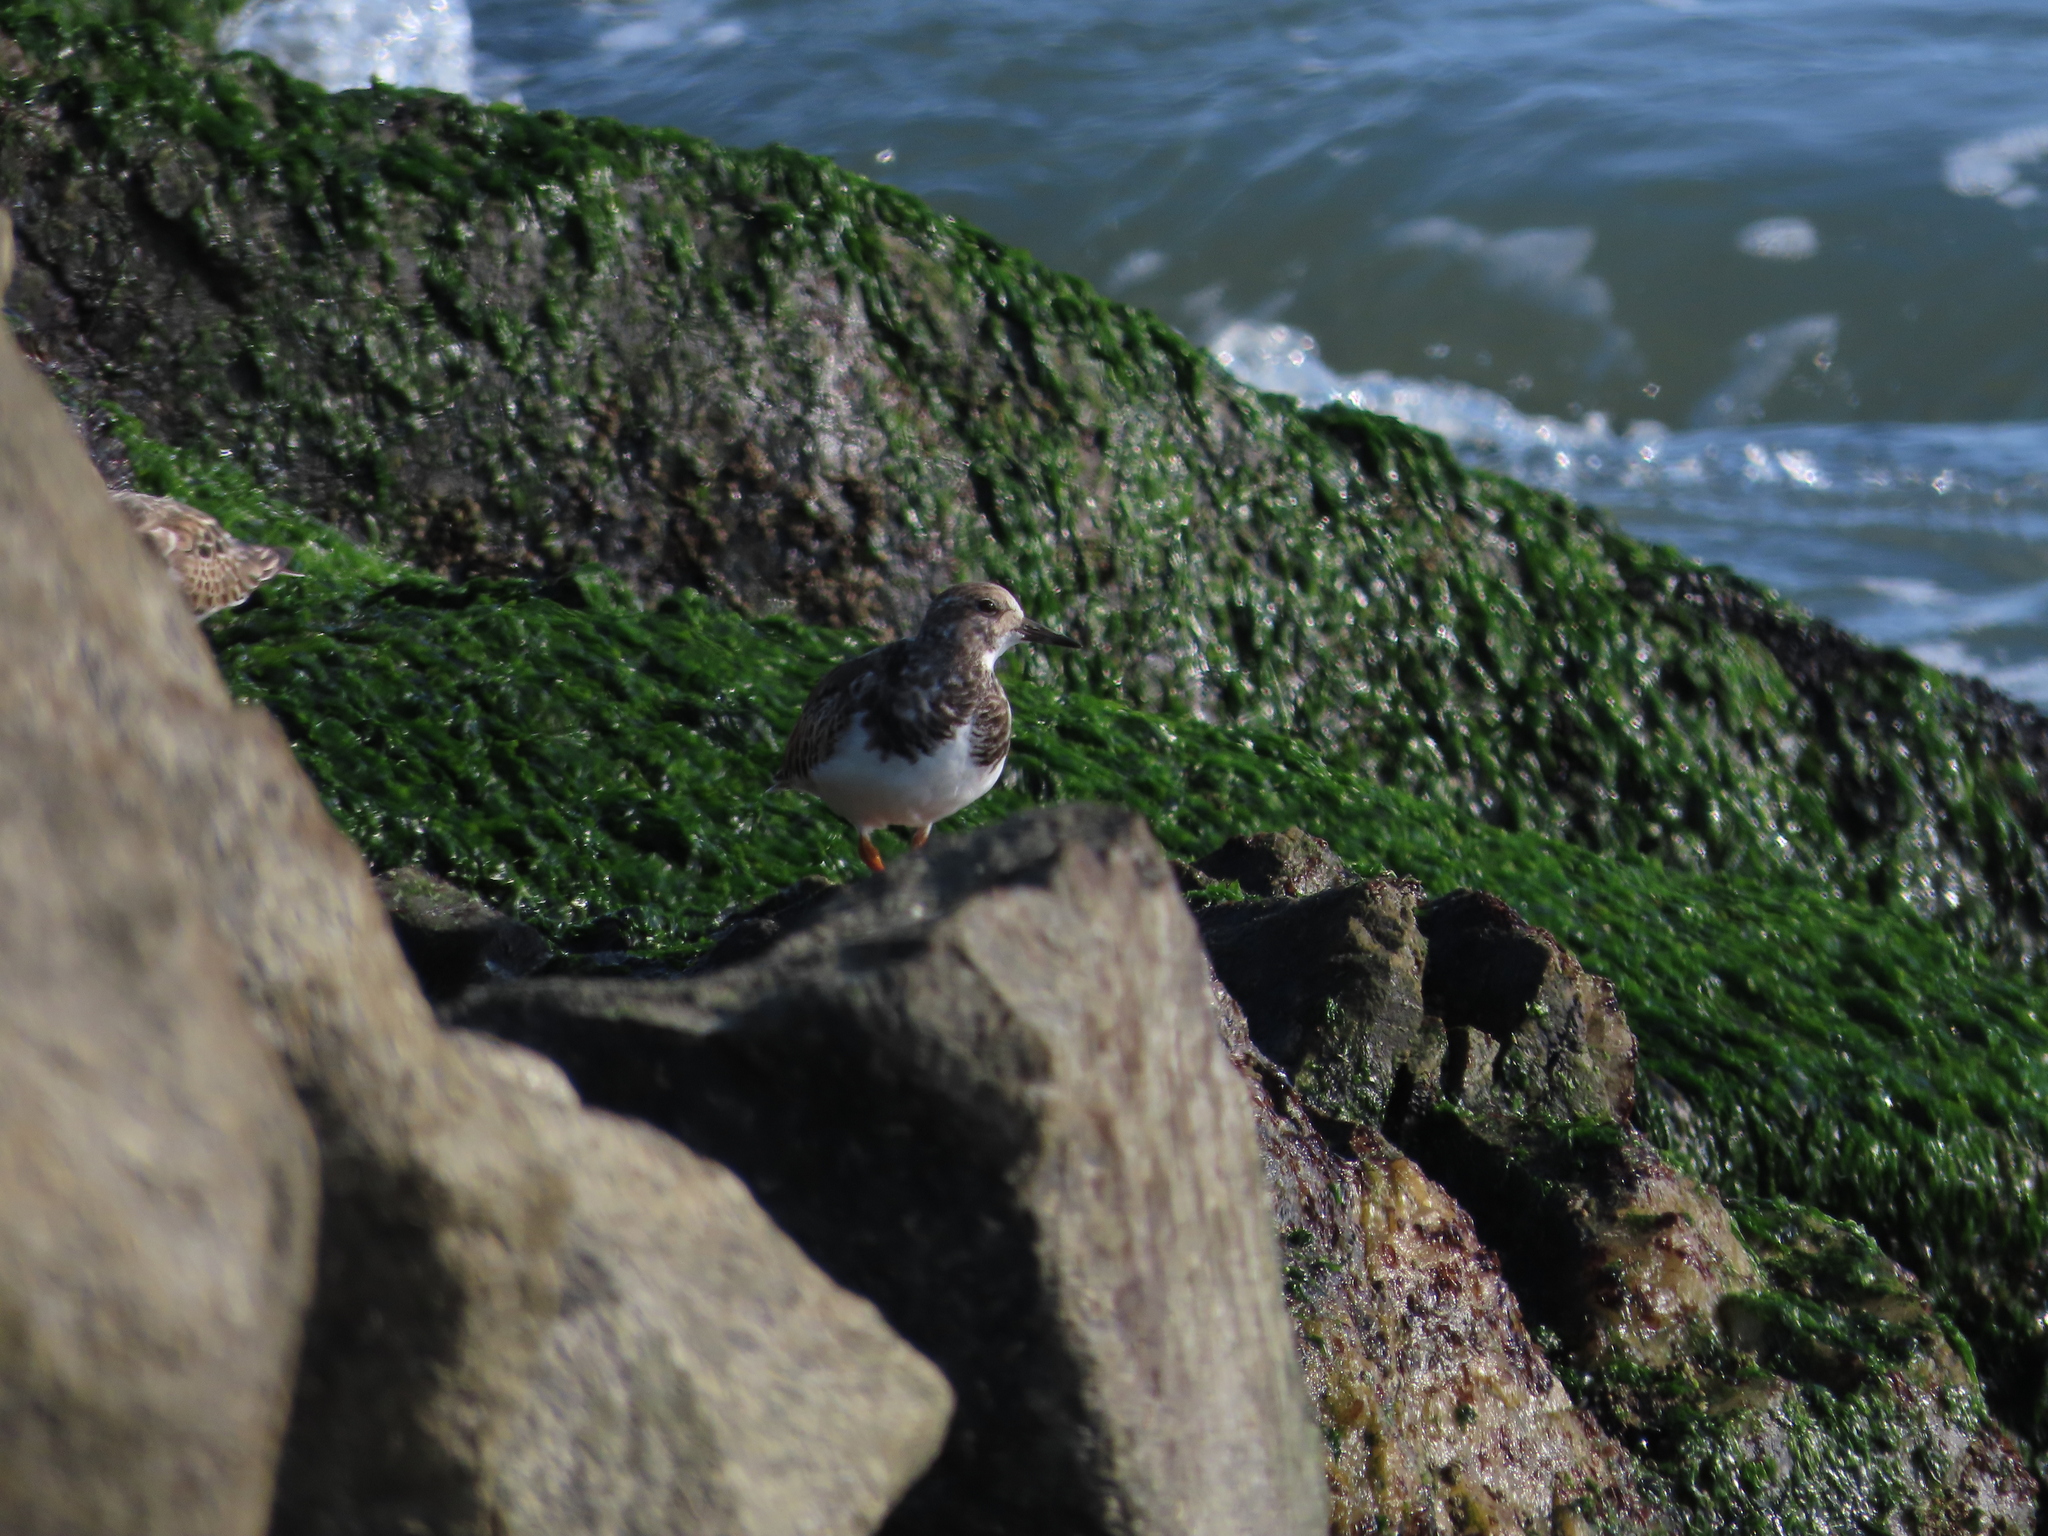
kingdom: Animalia
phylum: Chordata
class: Aves
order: Charadriiformes
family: Scolopacidae
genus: Arenaria
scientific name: Arenaria interpres
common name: Ruddy turnstone
